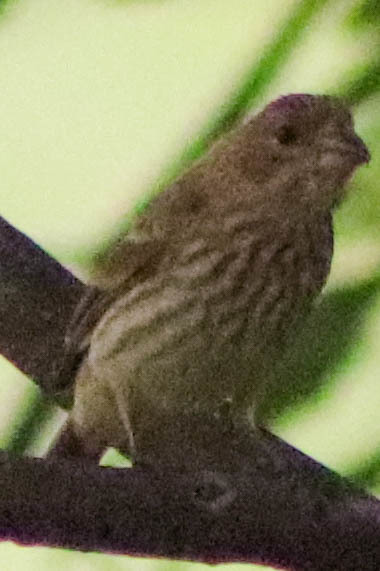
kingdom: Animalia
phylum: Chordata
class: Aves
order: Passeriformes
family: Fringillidae
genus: Haemorhous
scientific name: Haemorhous mexicanus
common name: House finch
